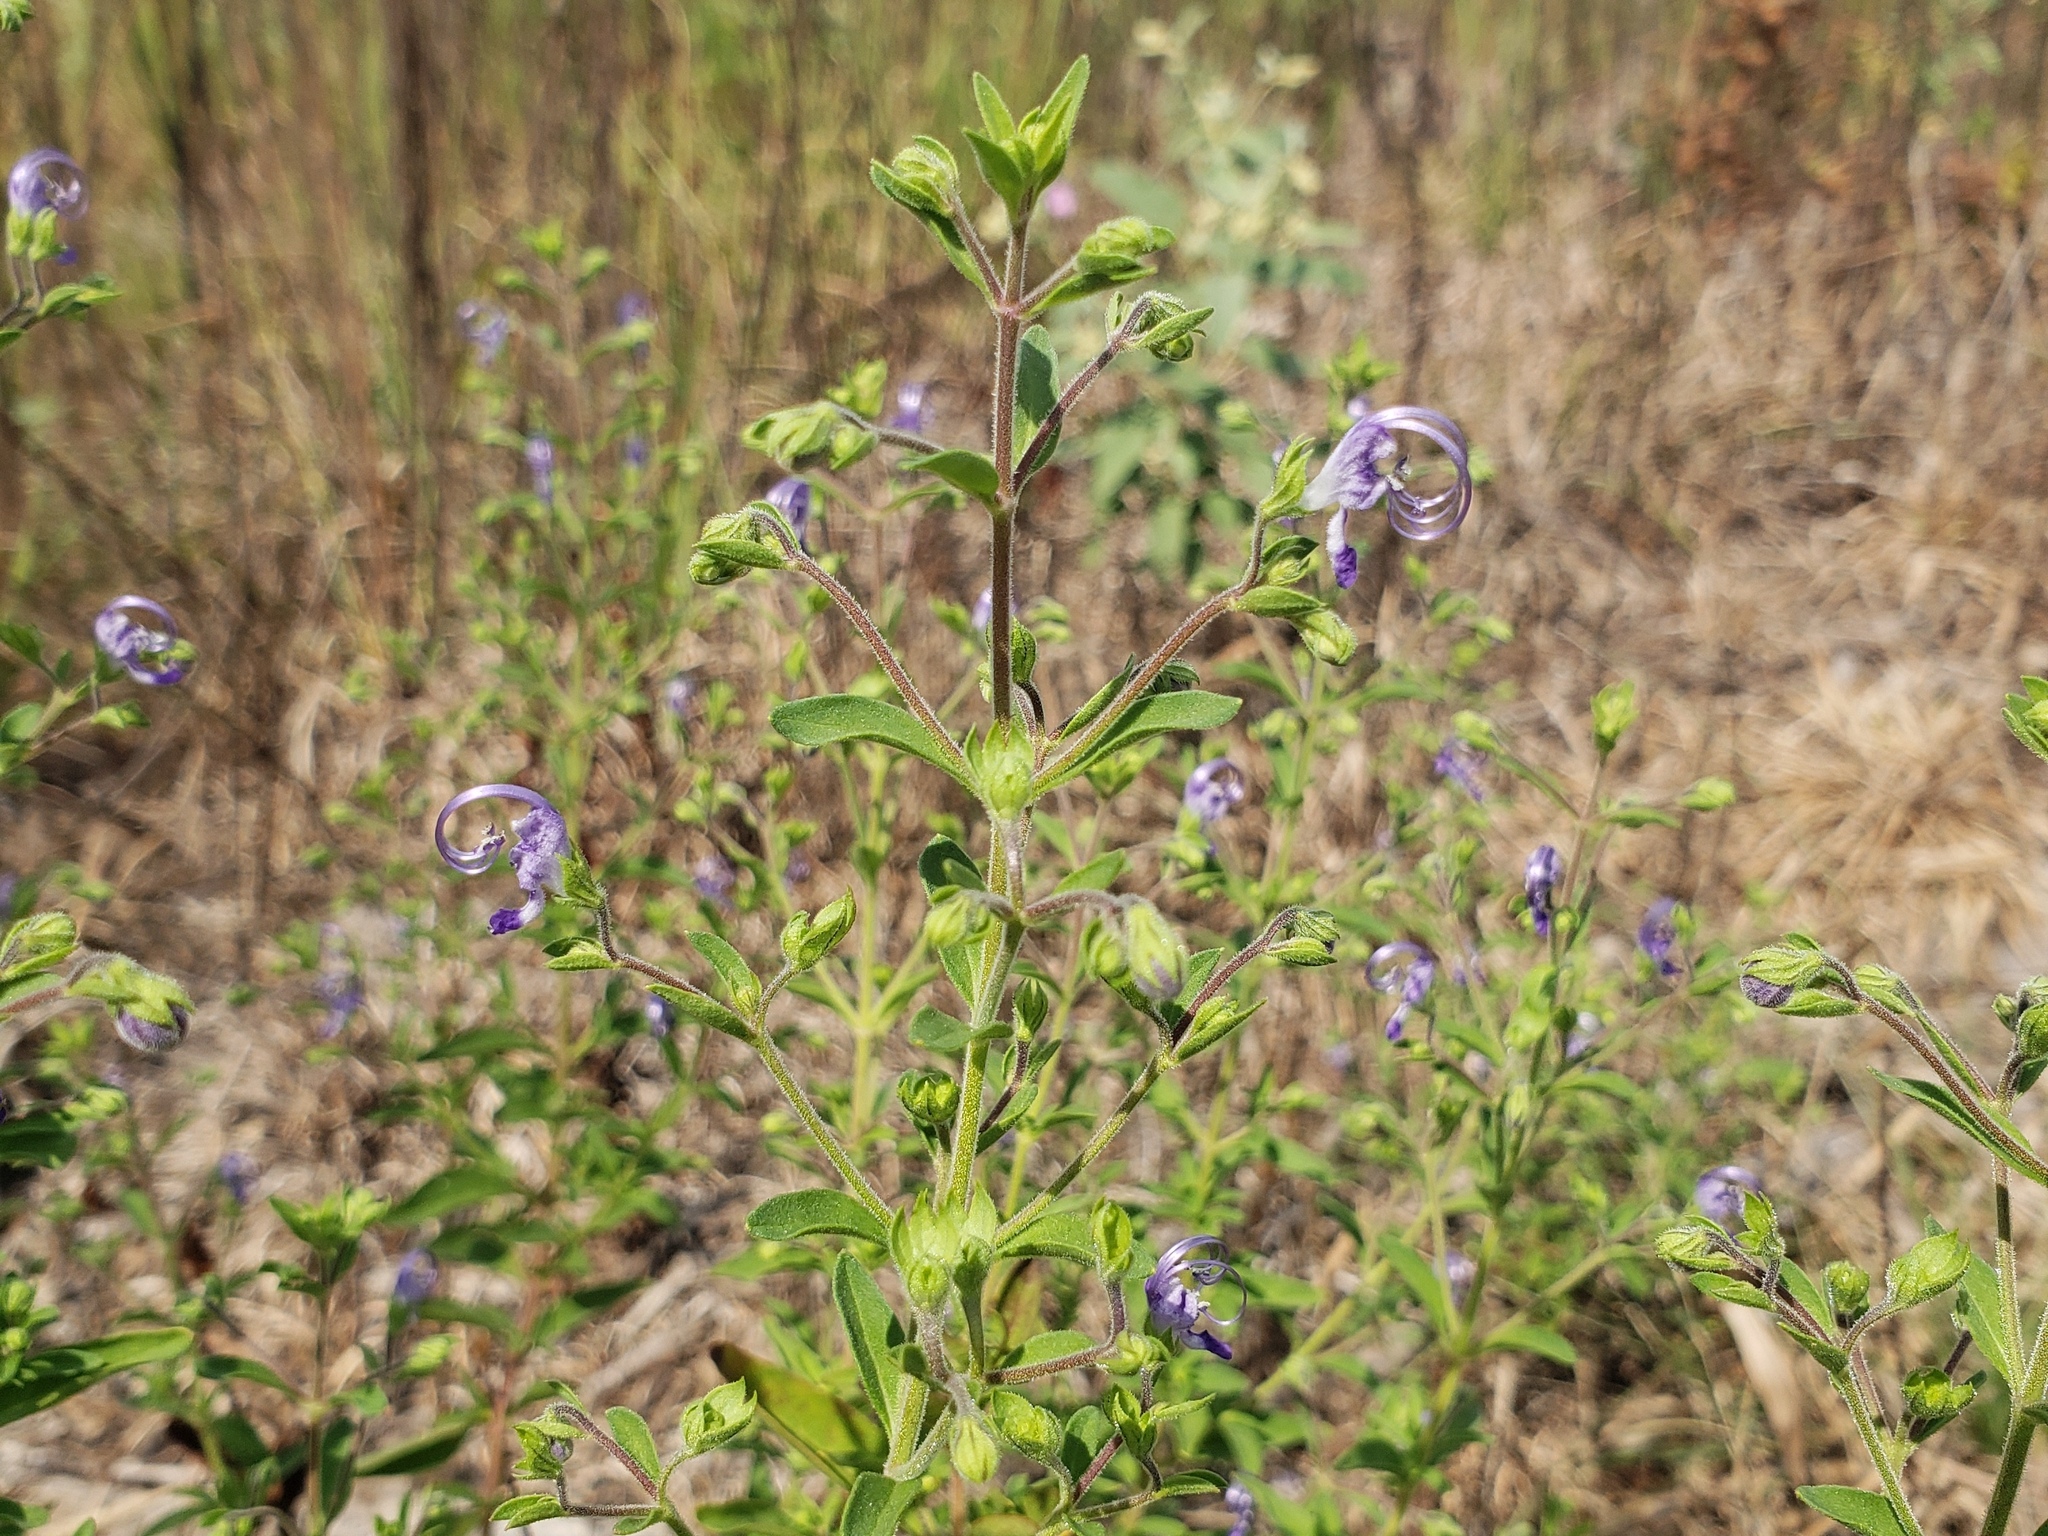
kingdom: Plantae
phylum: Tracheophyta
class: Magnoliopsida
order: Lamiales
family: Lamiaceae
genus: Trichostema
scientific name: Trichostema dichotomum
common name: Bastard pennyroyal
